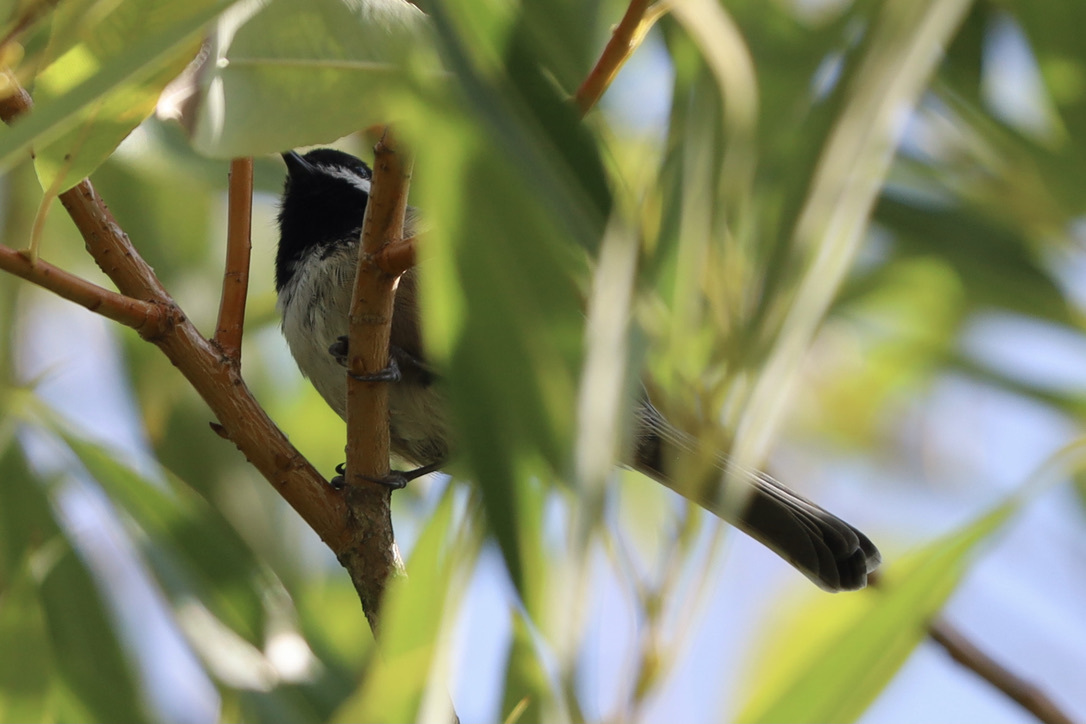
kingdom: Animalia
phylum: Chordata
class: Aves
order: Passeriformes
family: Paridae
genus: Poecile
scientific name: Poecile atricapillus
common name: Black-capped chickadee
